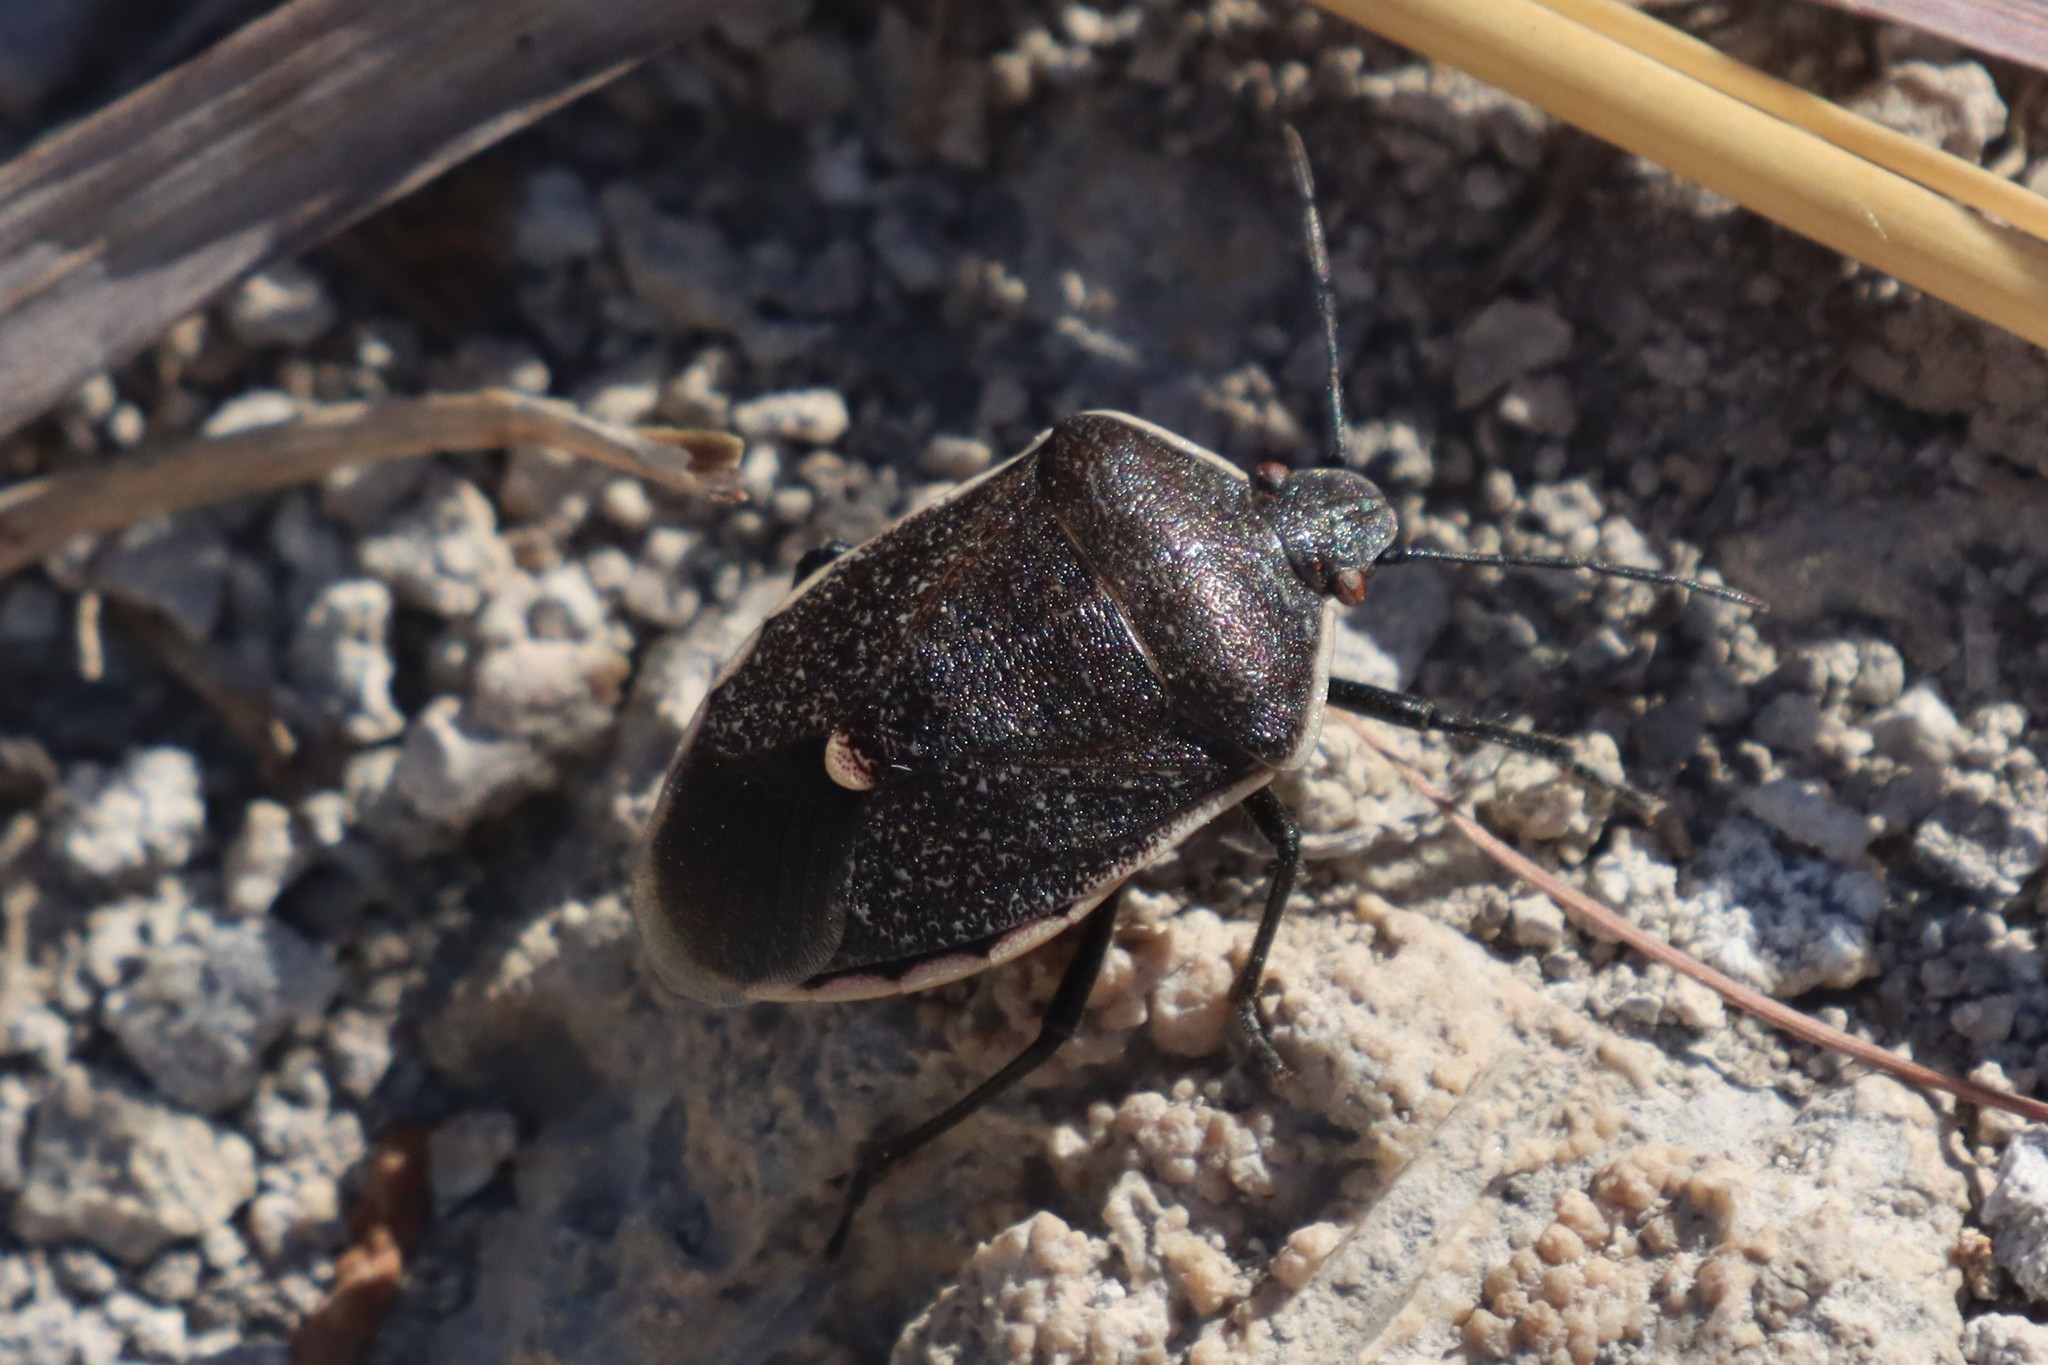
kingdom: Animalia
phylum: Arthropoda
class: Insecta
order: Hemiptera
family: Pentatomidae
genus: Chlorochroa
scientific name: Chlorochroa ligata
